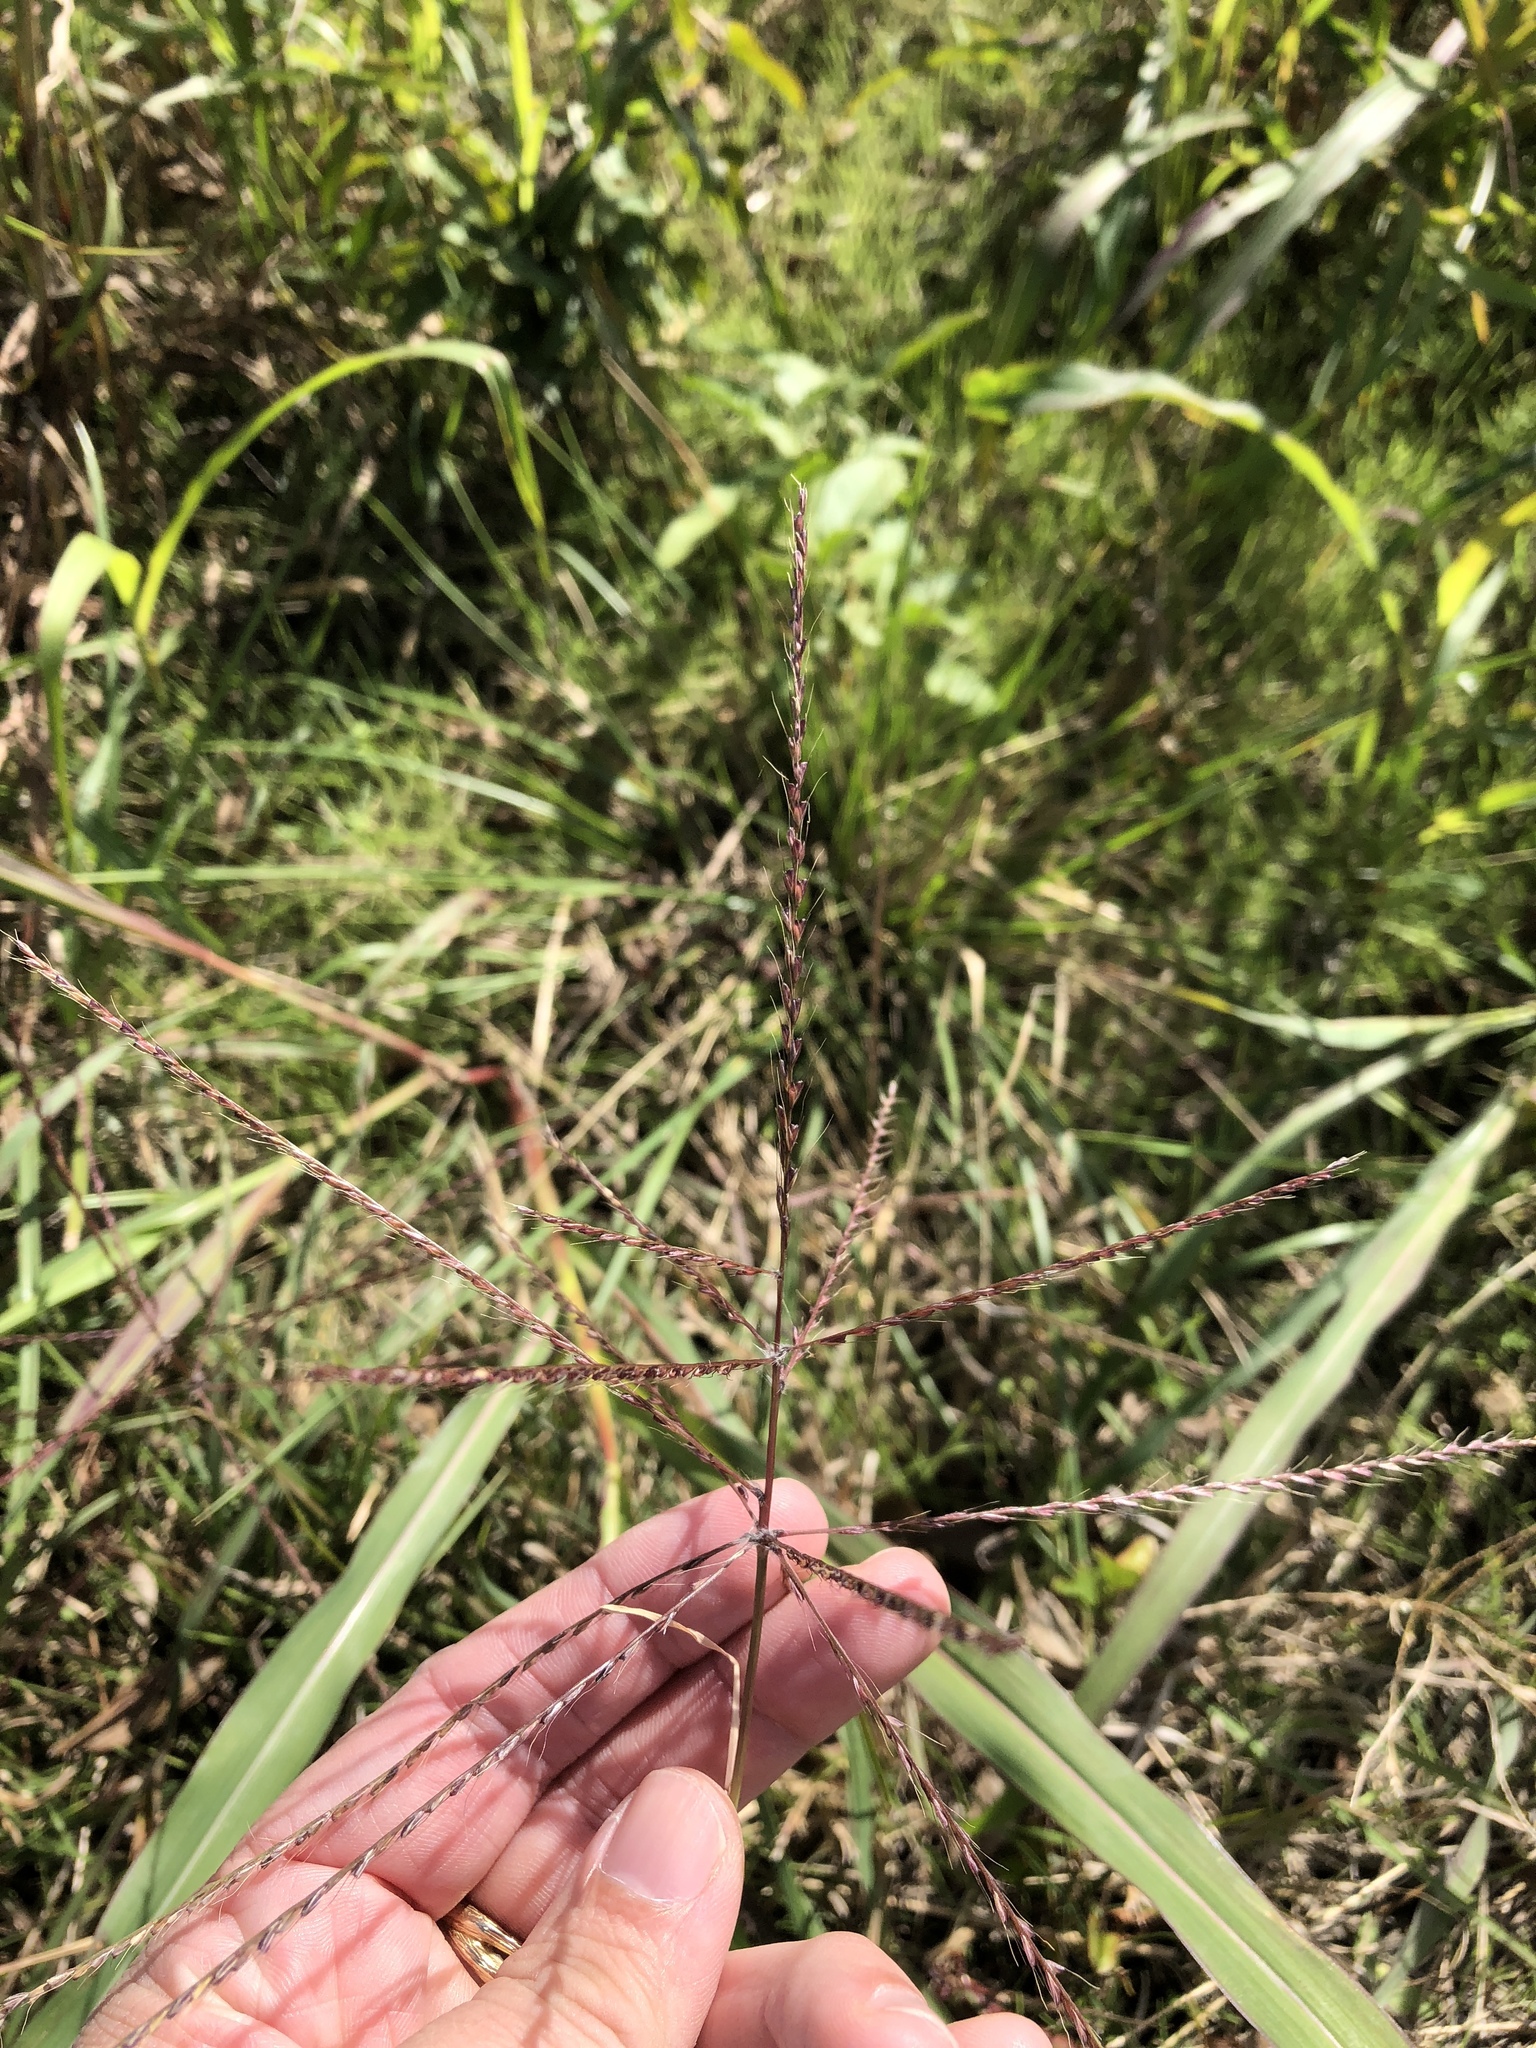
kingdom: Plantae
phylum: Tracheophyta
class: Liliopsida
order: Poales
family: Poaceae
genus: Chloris
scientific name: Chloris verticillata
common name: Tumble windmill grass
